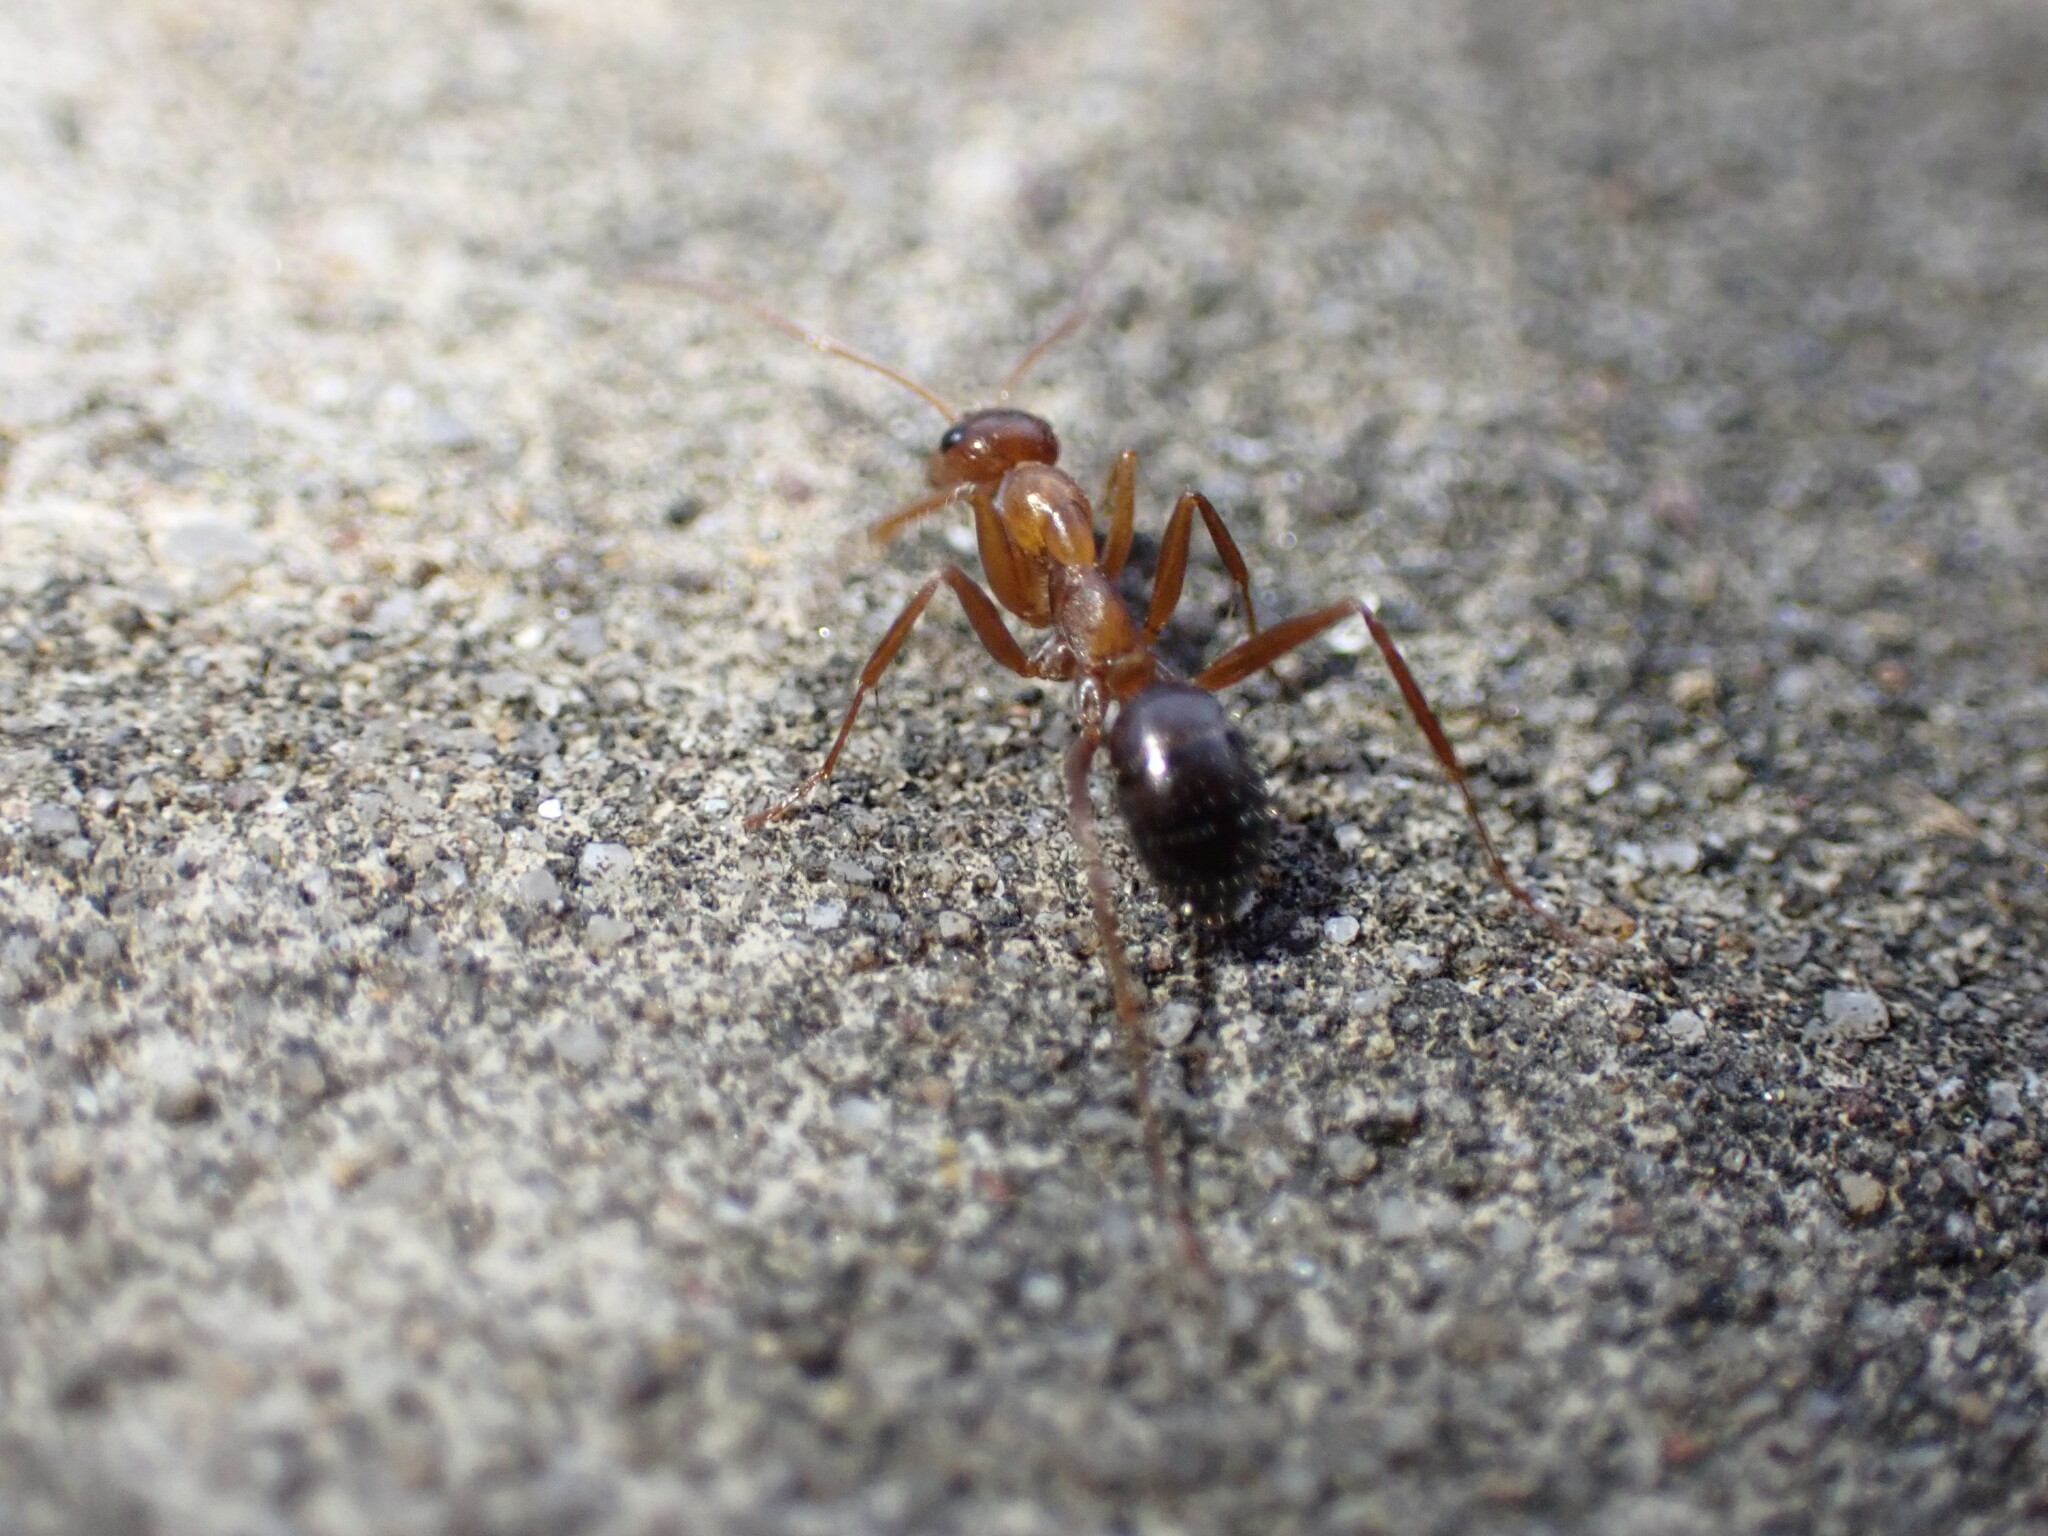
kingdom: Animalia
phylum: Arthropoda
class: Insecta
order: Hymenoptera
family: Formicidae
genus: Formica
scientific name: Formica
